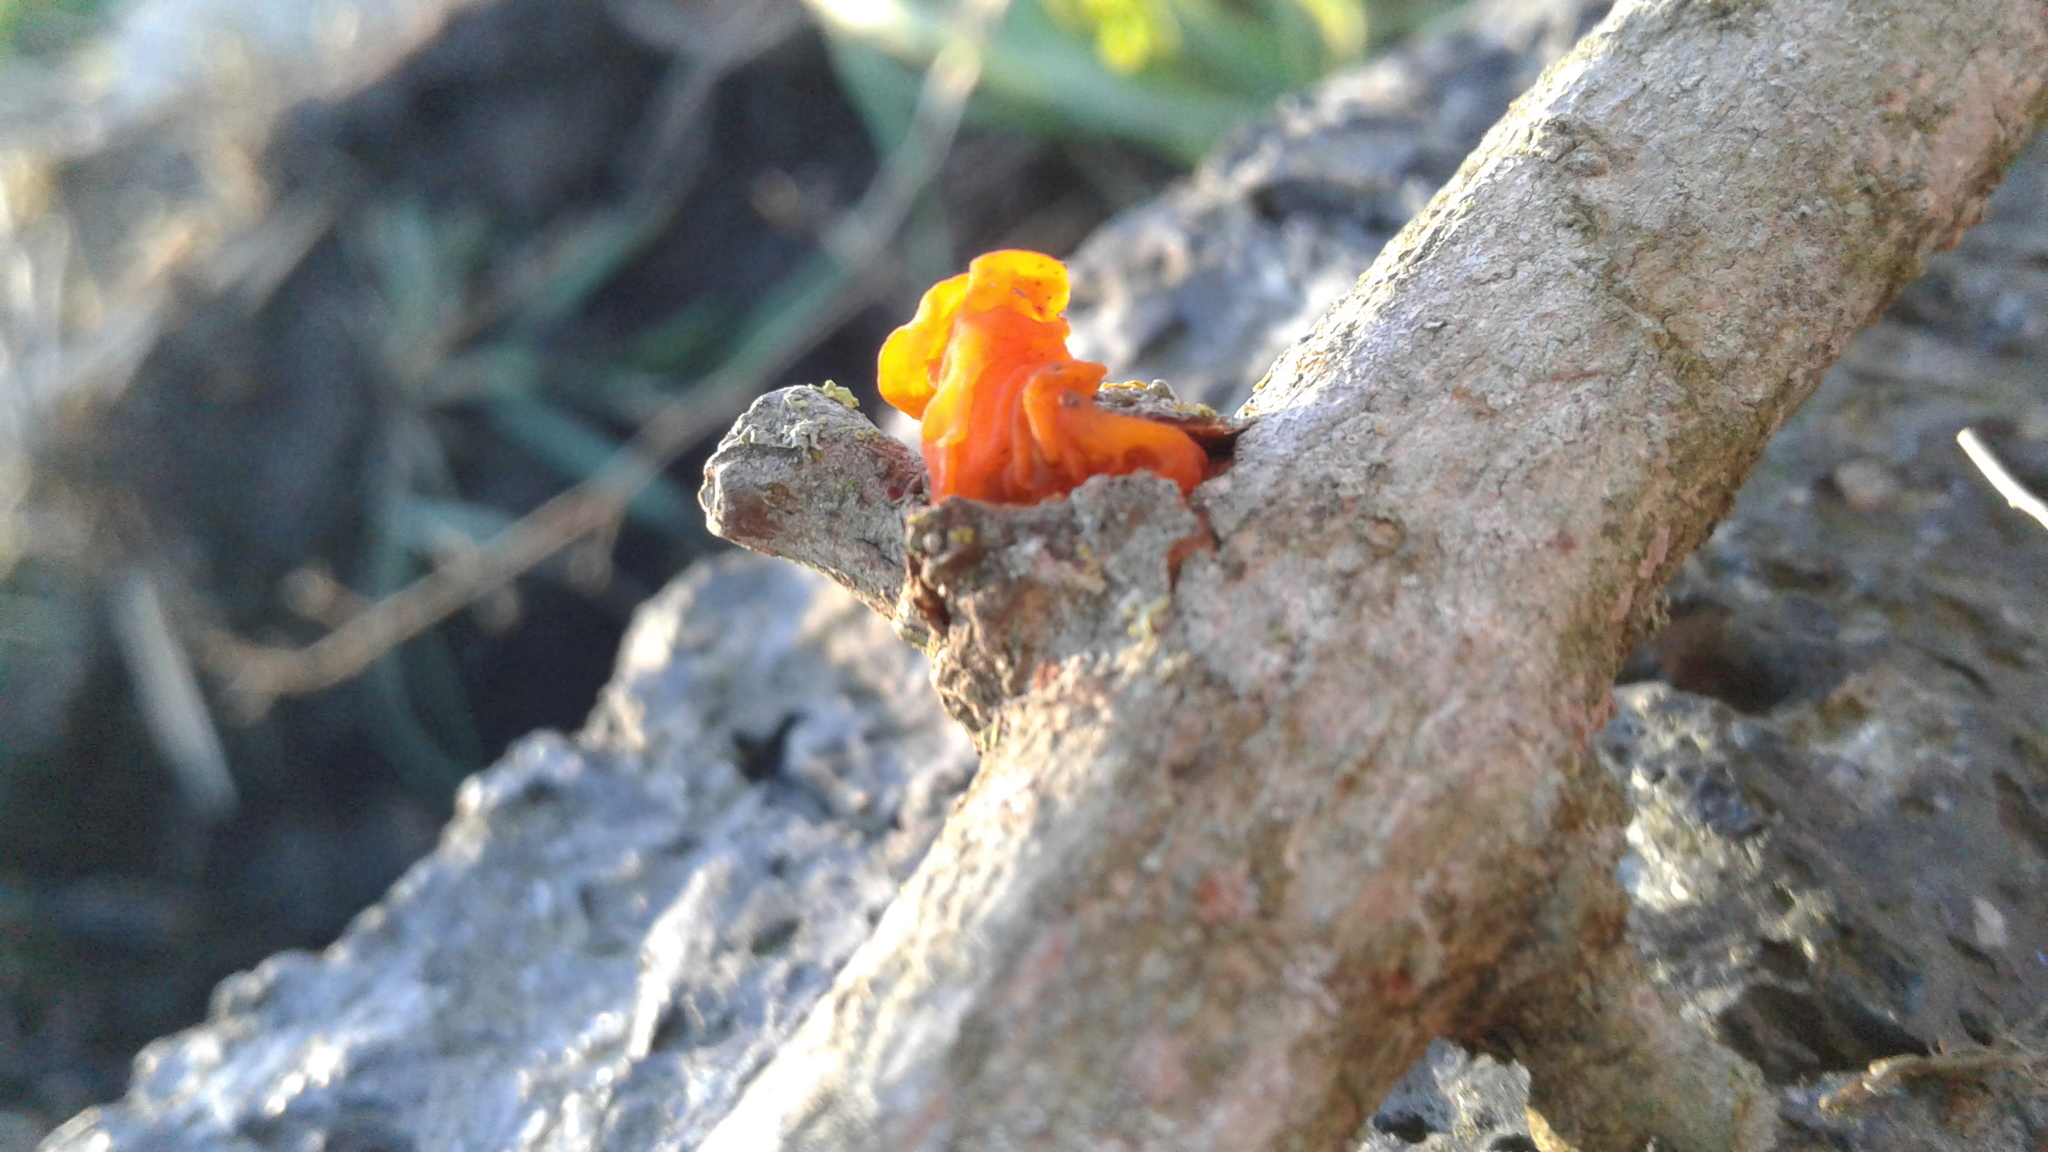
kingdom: Fungi
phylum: Basidiomycota
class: Tremellomycetes
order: Tremellales
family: Tremellaceae
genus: Tremella
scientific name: Tremella mesenterica
